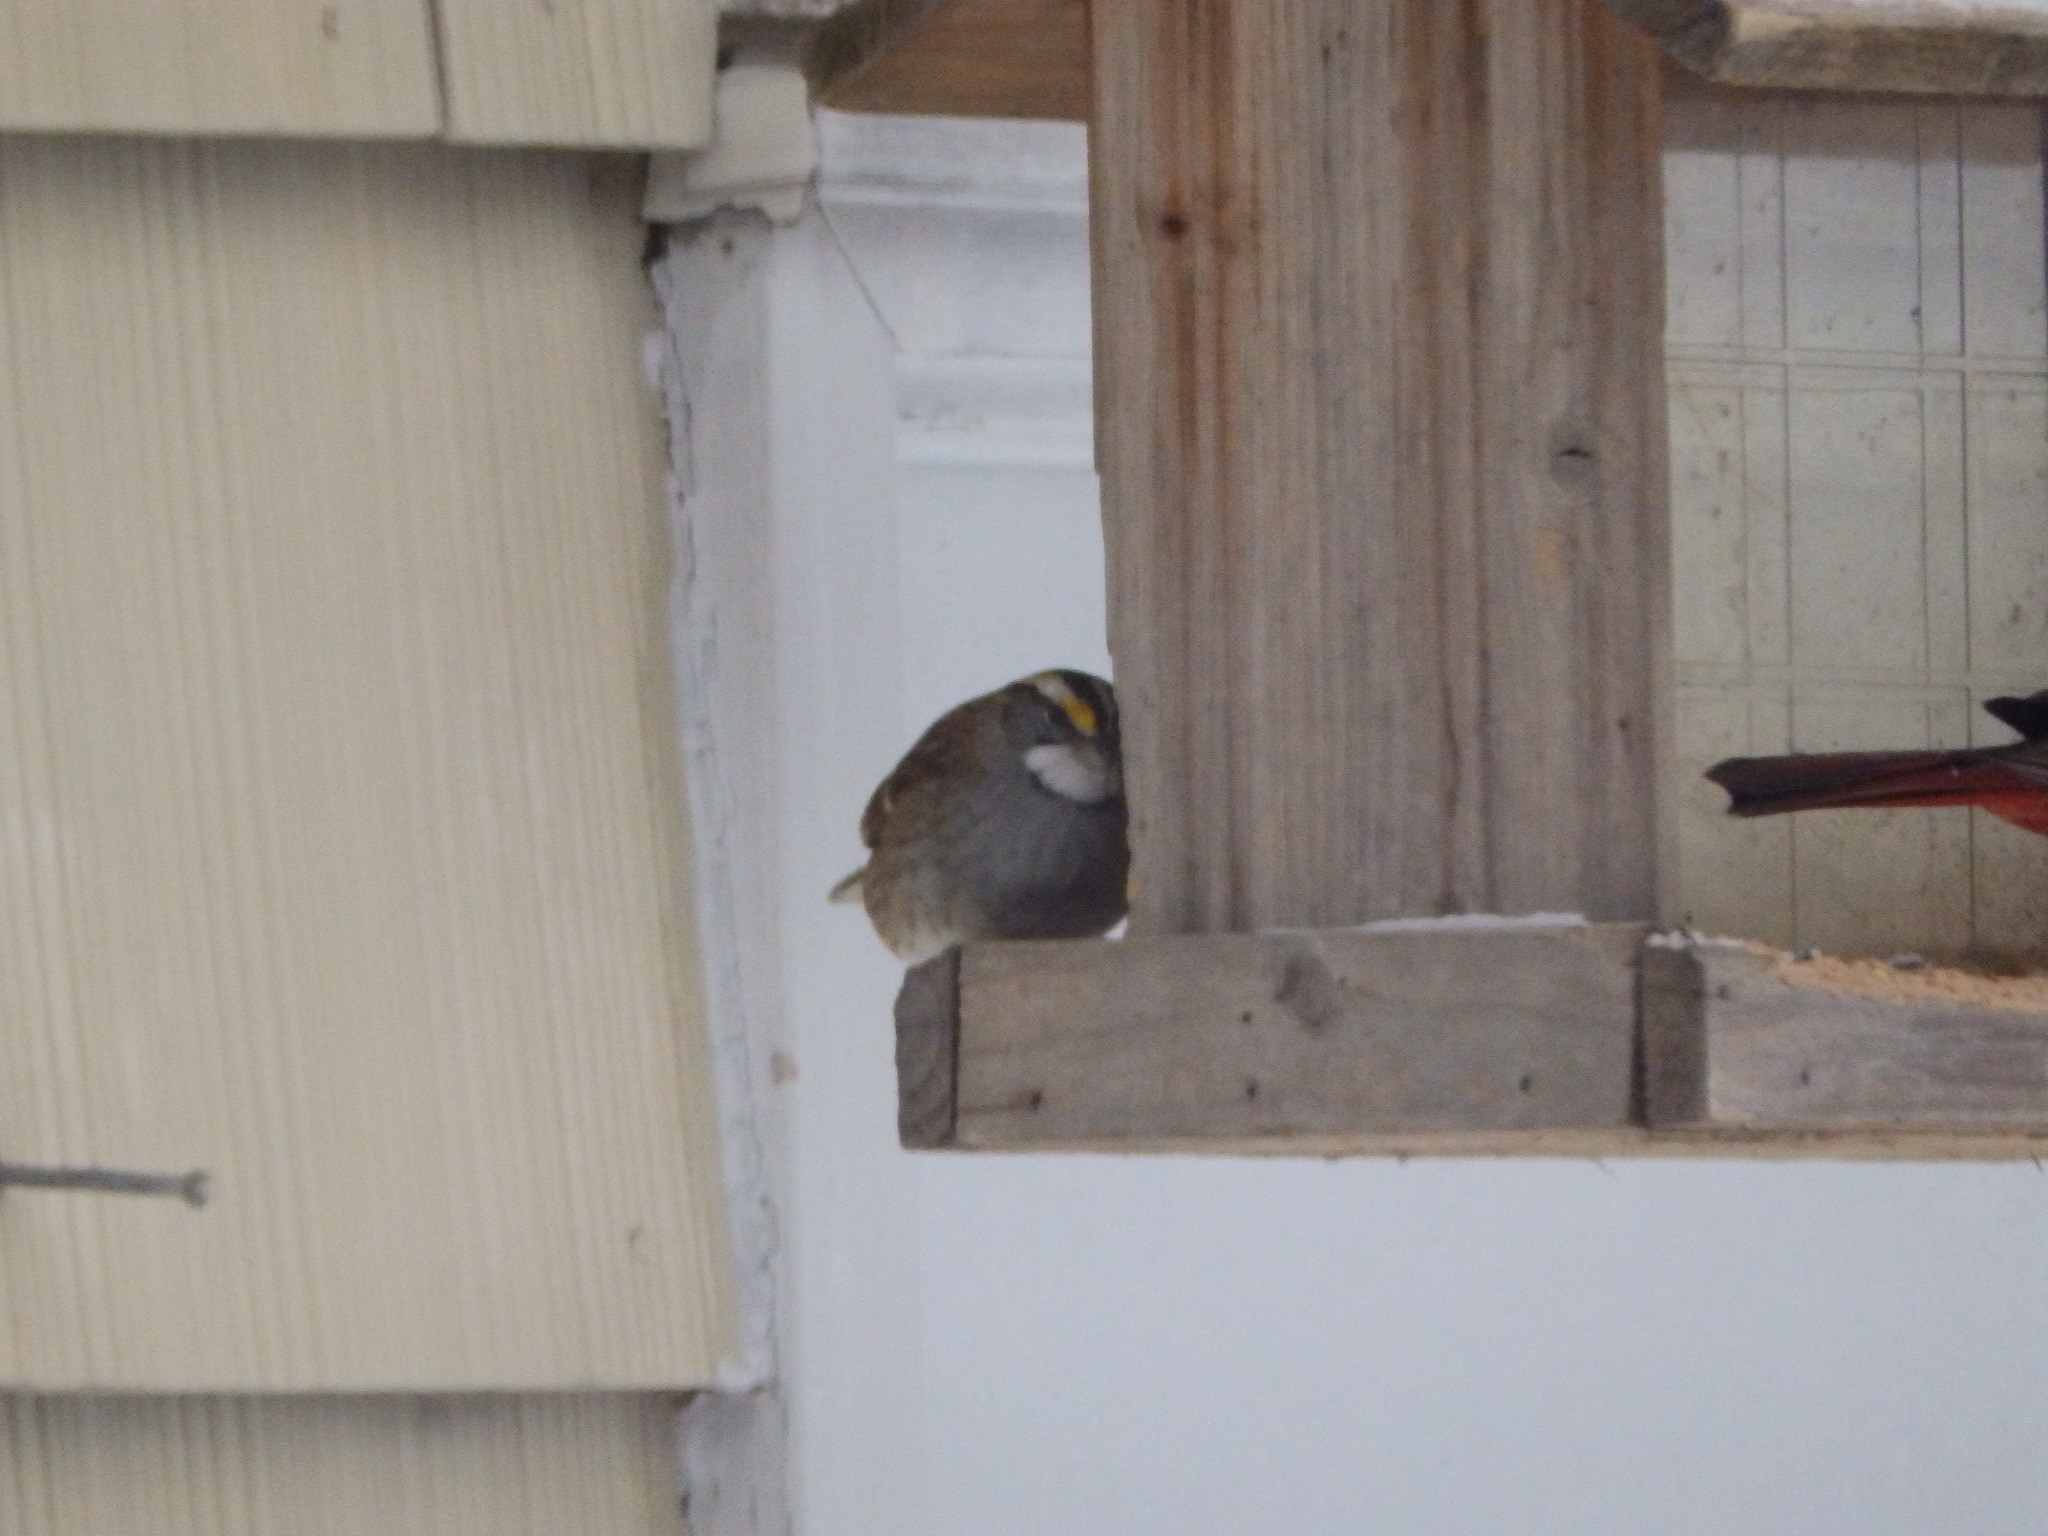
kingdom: Animalia
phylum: Chordata
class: Aves
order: Passeriformes
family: Passerellidae
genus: Zonotrichia
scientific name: Zonotrichia albicollis
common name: White-throated sparrow
